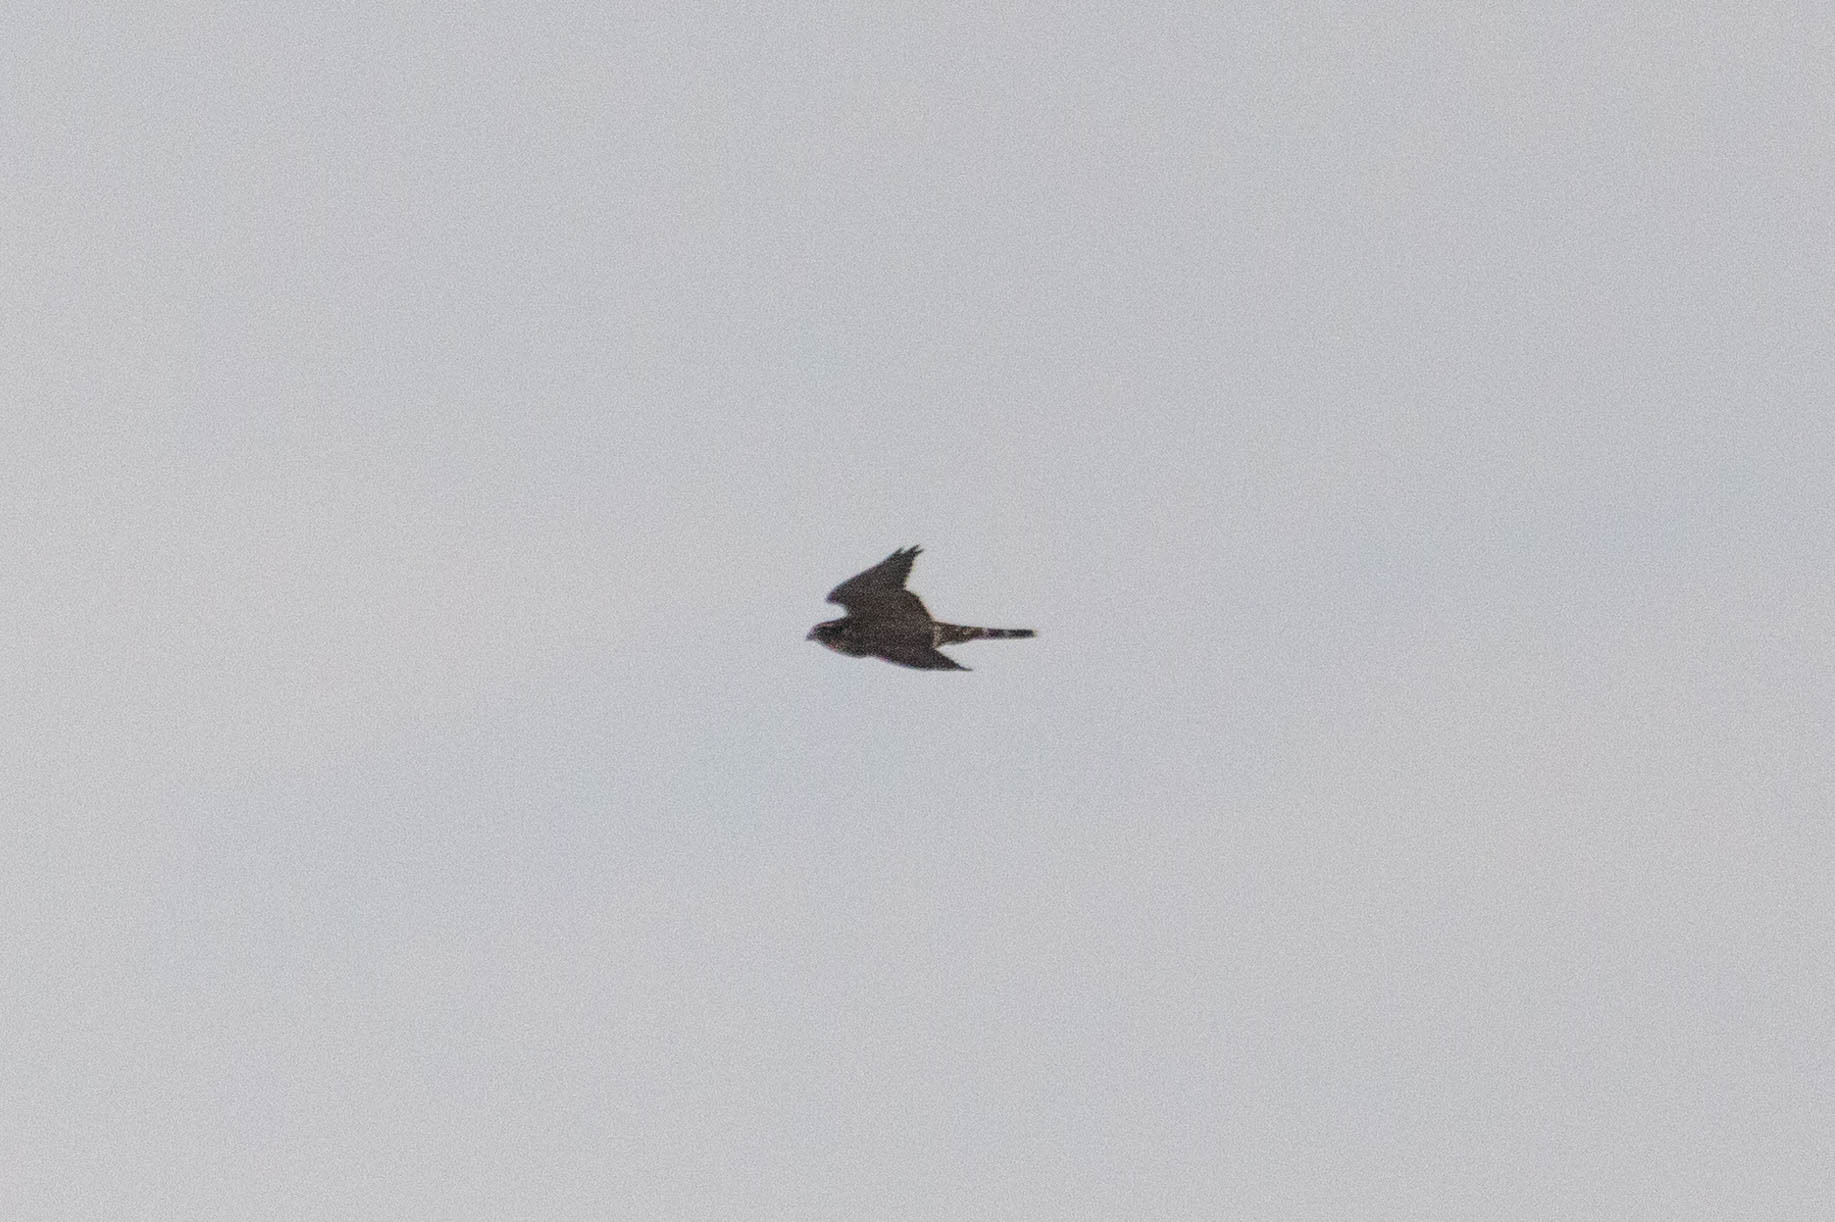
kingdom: Animalia
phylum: Chordata
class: Aves
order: Falconiformes
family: Falconidae
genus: Falco
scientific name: Falco columbarius
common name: Merlin
